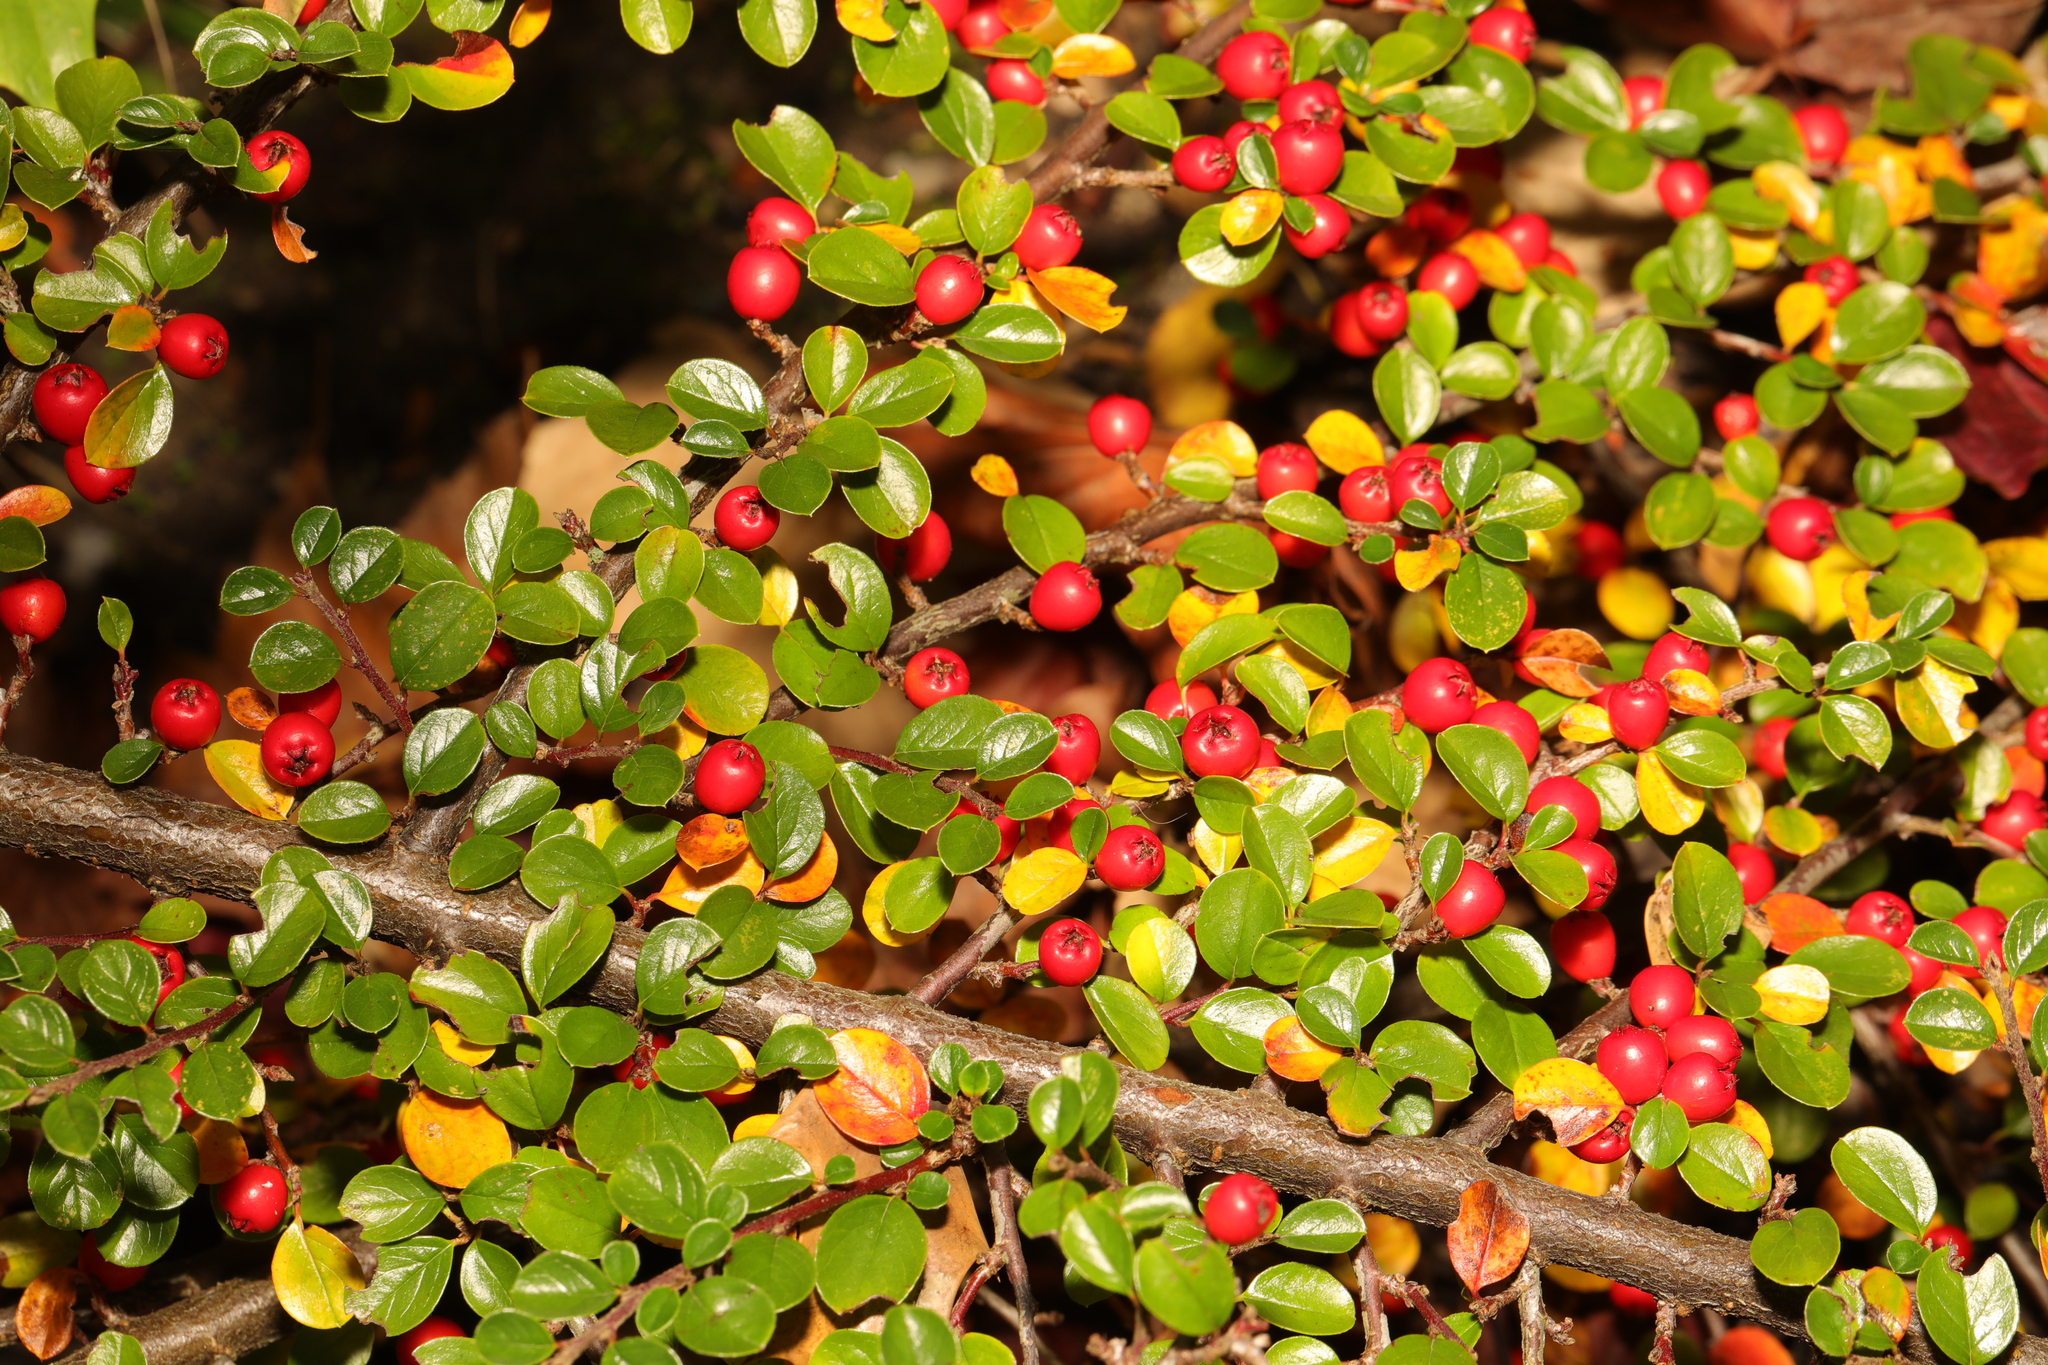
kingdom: Plantae
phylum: Tracheophyta
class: Magnoliopsida
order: Rosales
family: Rosaceae
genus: Cotoneaster
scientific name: Cotoneaster horizontalis
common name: Wall cotoneaster
